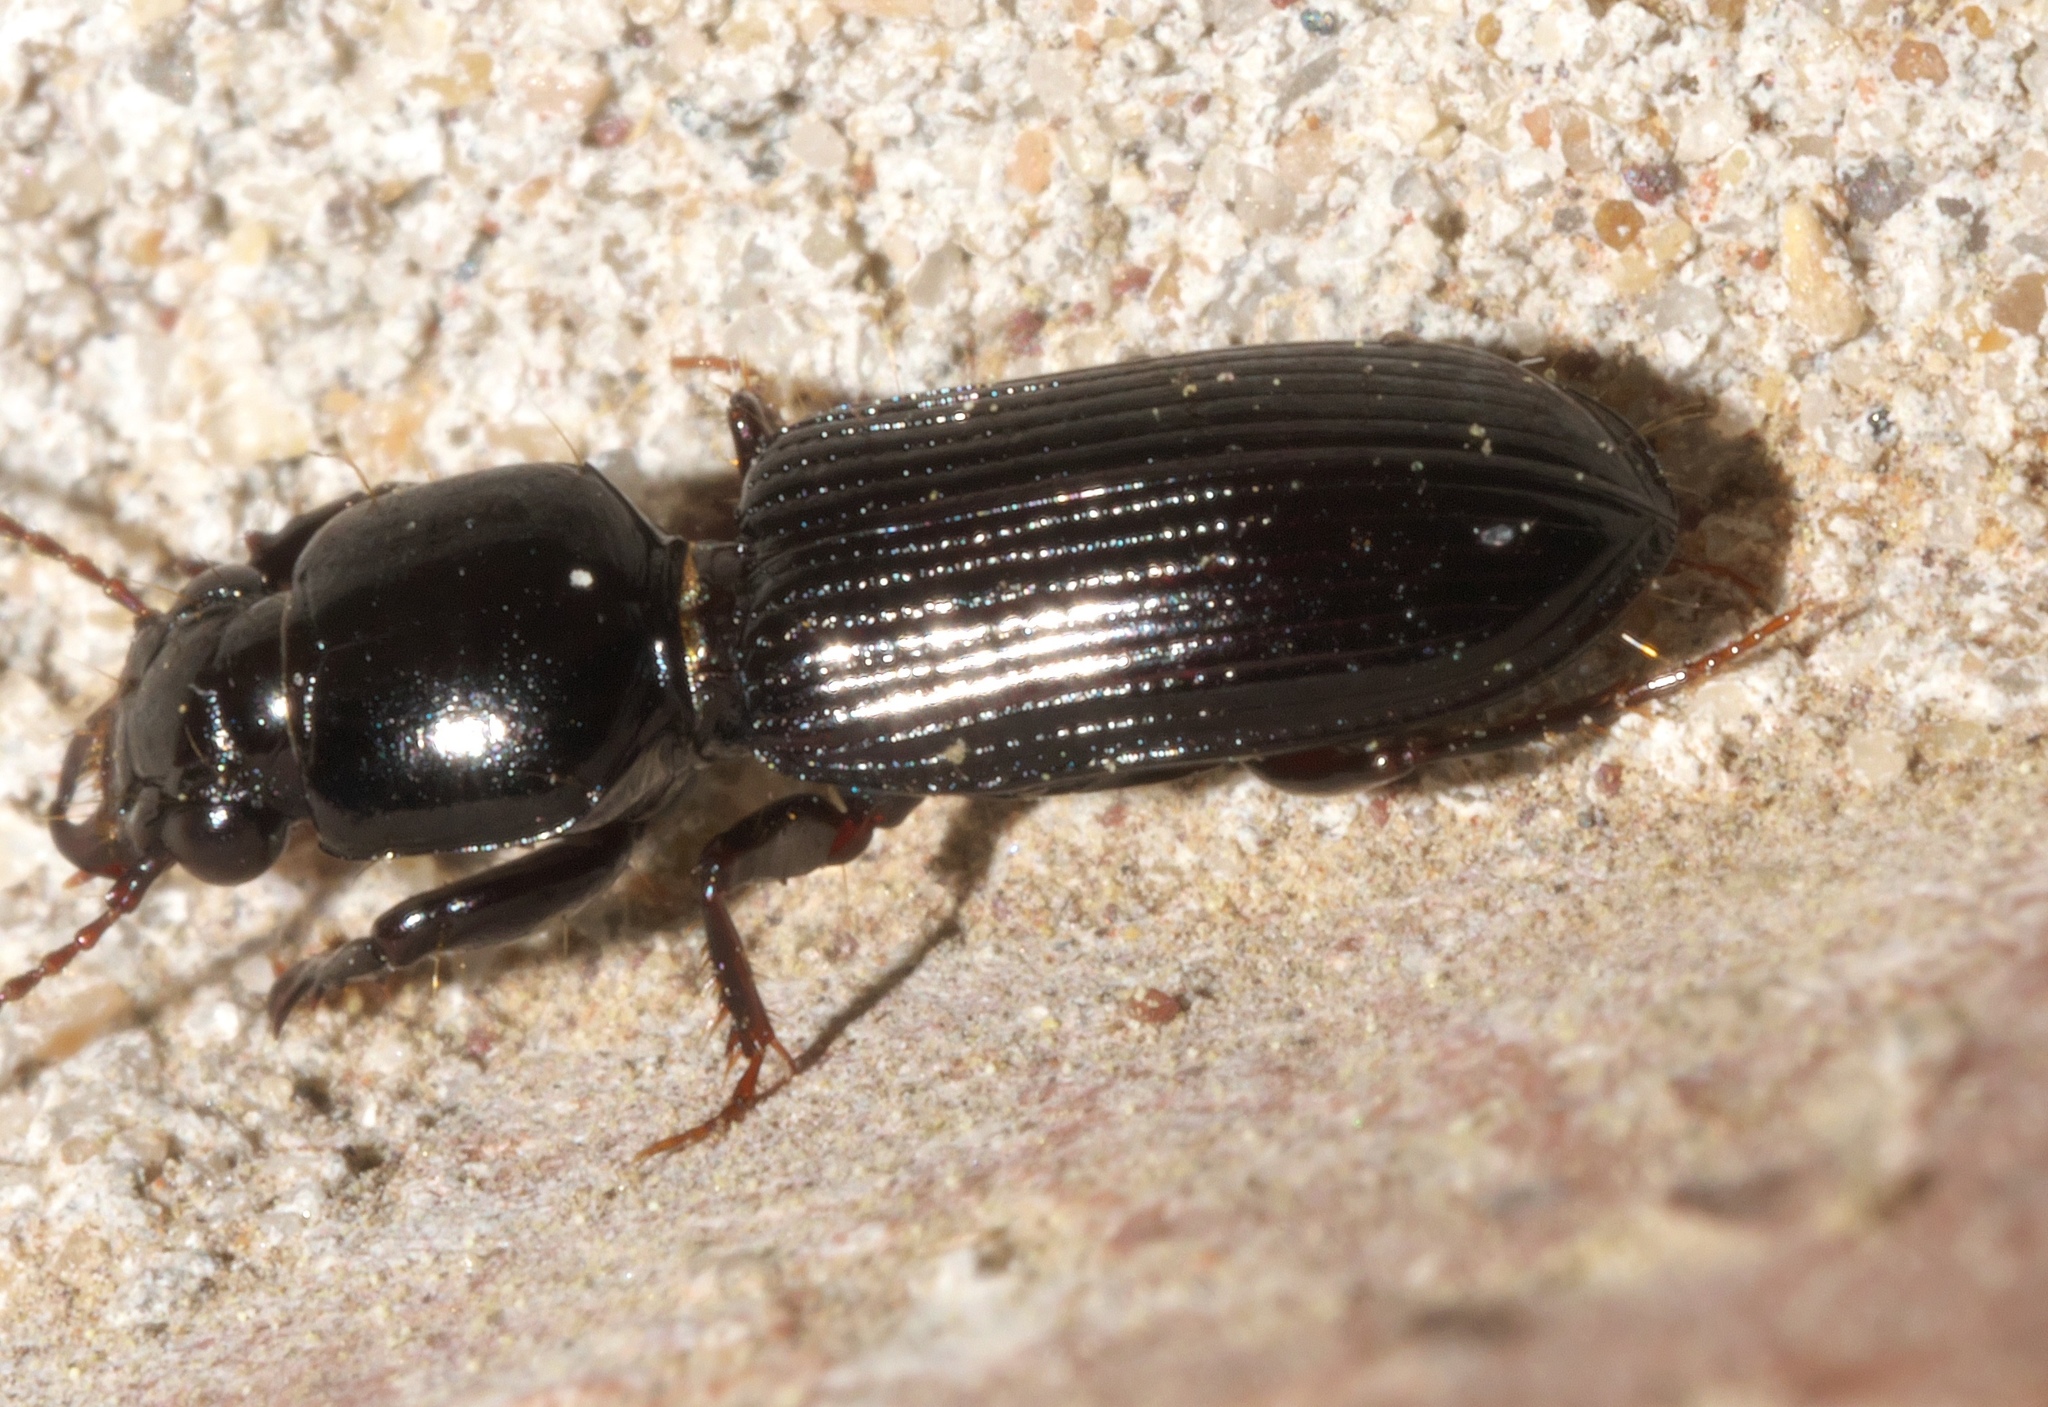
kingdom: Animalia
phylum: Arthropoda
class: Insecta
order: Coleoptera
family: Carabidae
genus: Semiclivina
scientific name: Semiclivina dentipes
